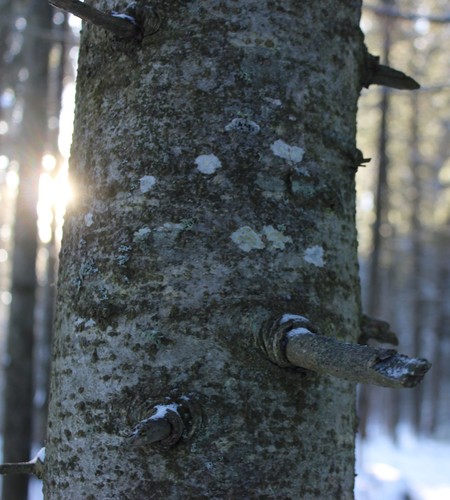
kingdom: Fungi
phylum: Ascomycota
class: Lecanoromycetes
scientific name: Lecanoromycetes
